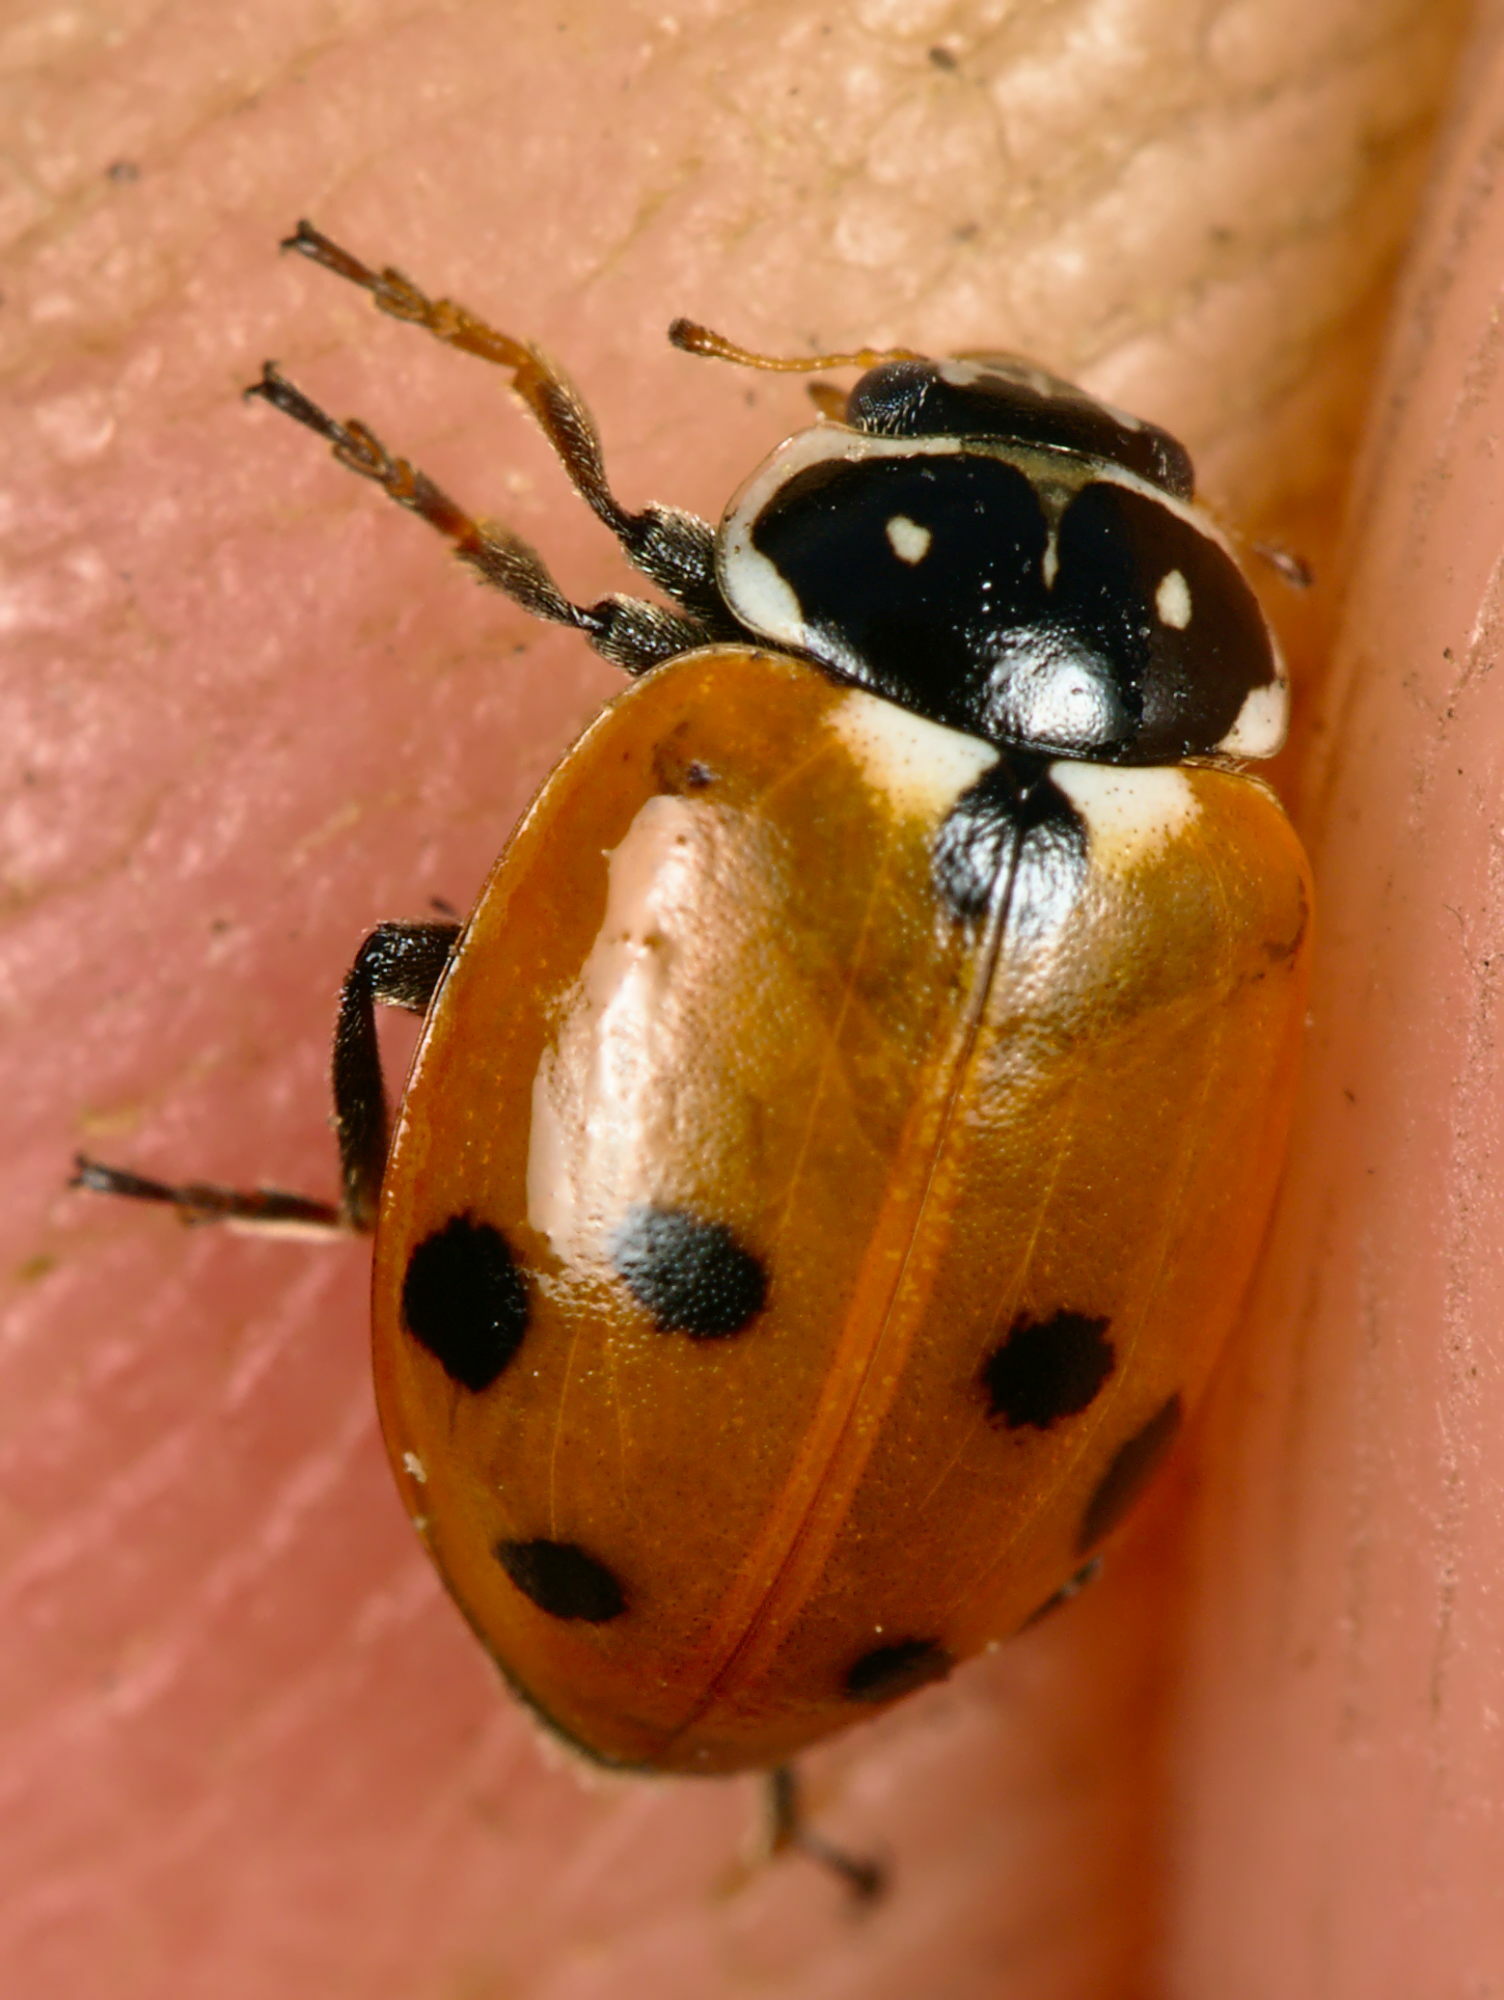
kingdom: Animalia
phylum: Arthropoda
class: Insecta
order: Coleoptera
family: Coccinellidae
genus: Hippodamia
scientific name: Hippodamia variegata
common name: Ladybird beetle
